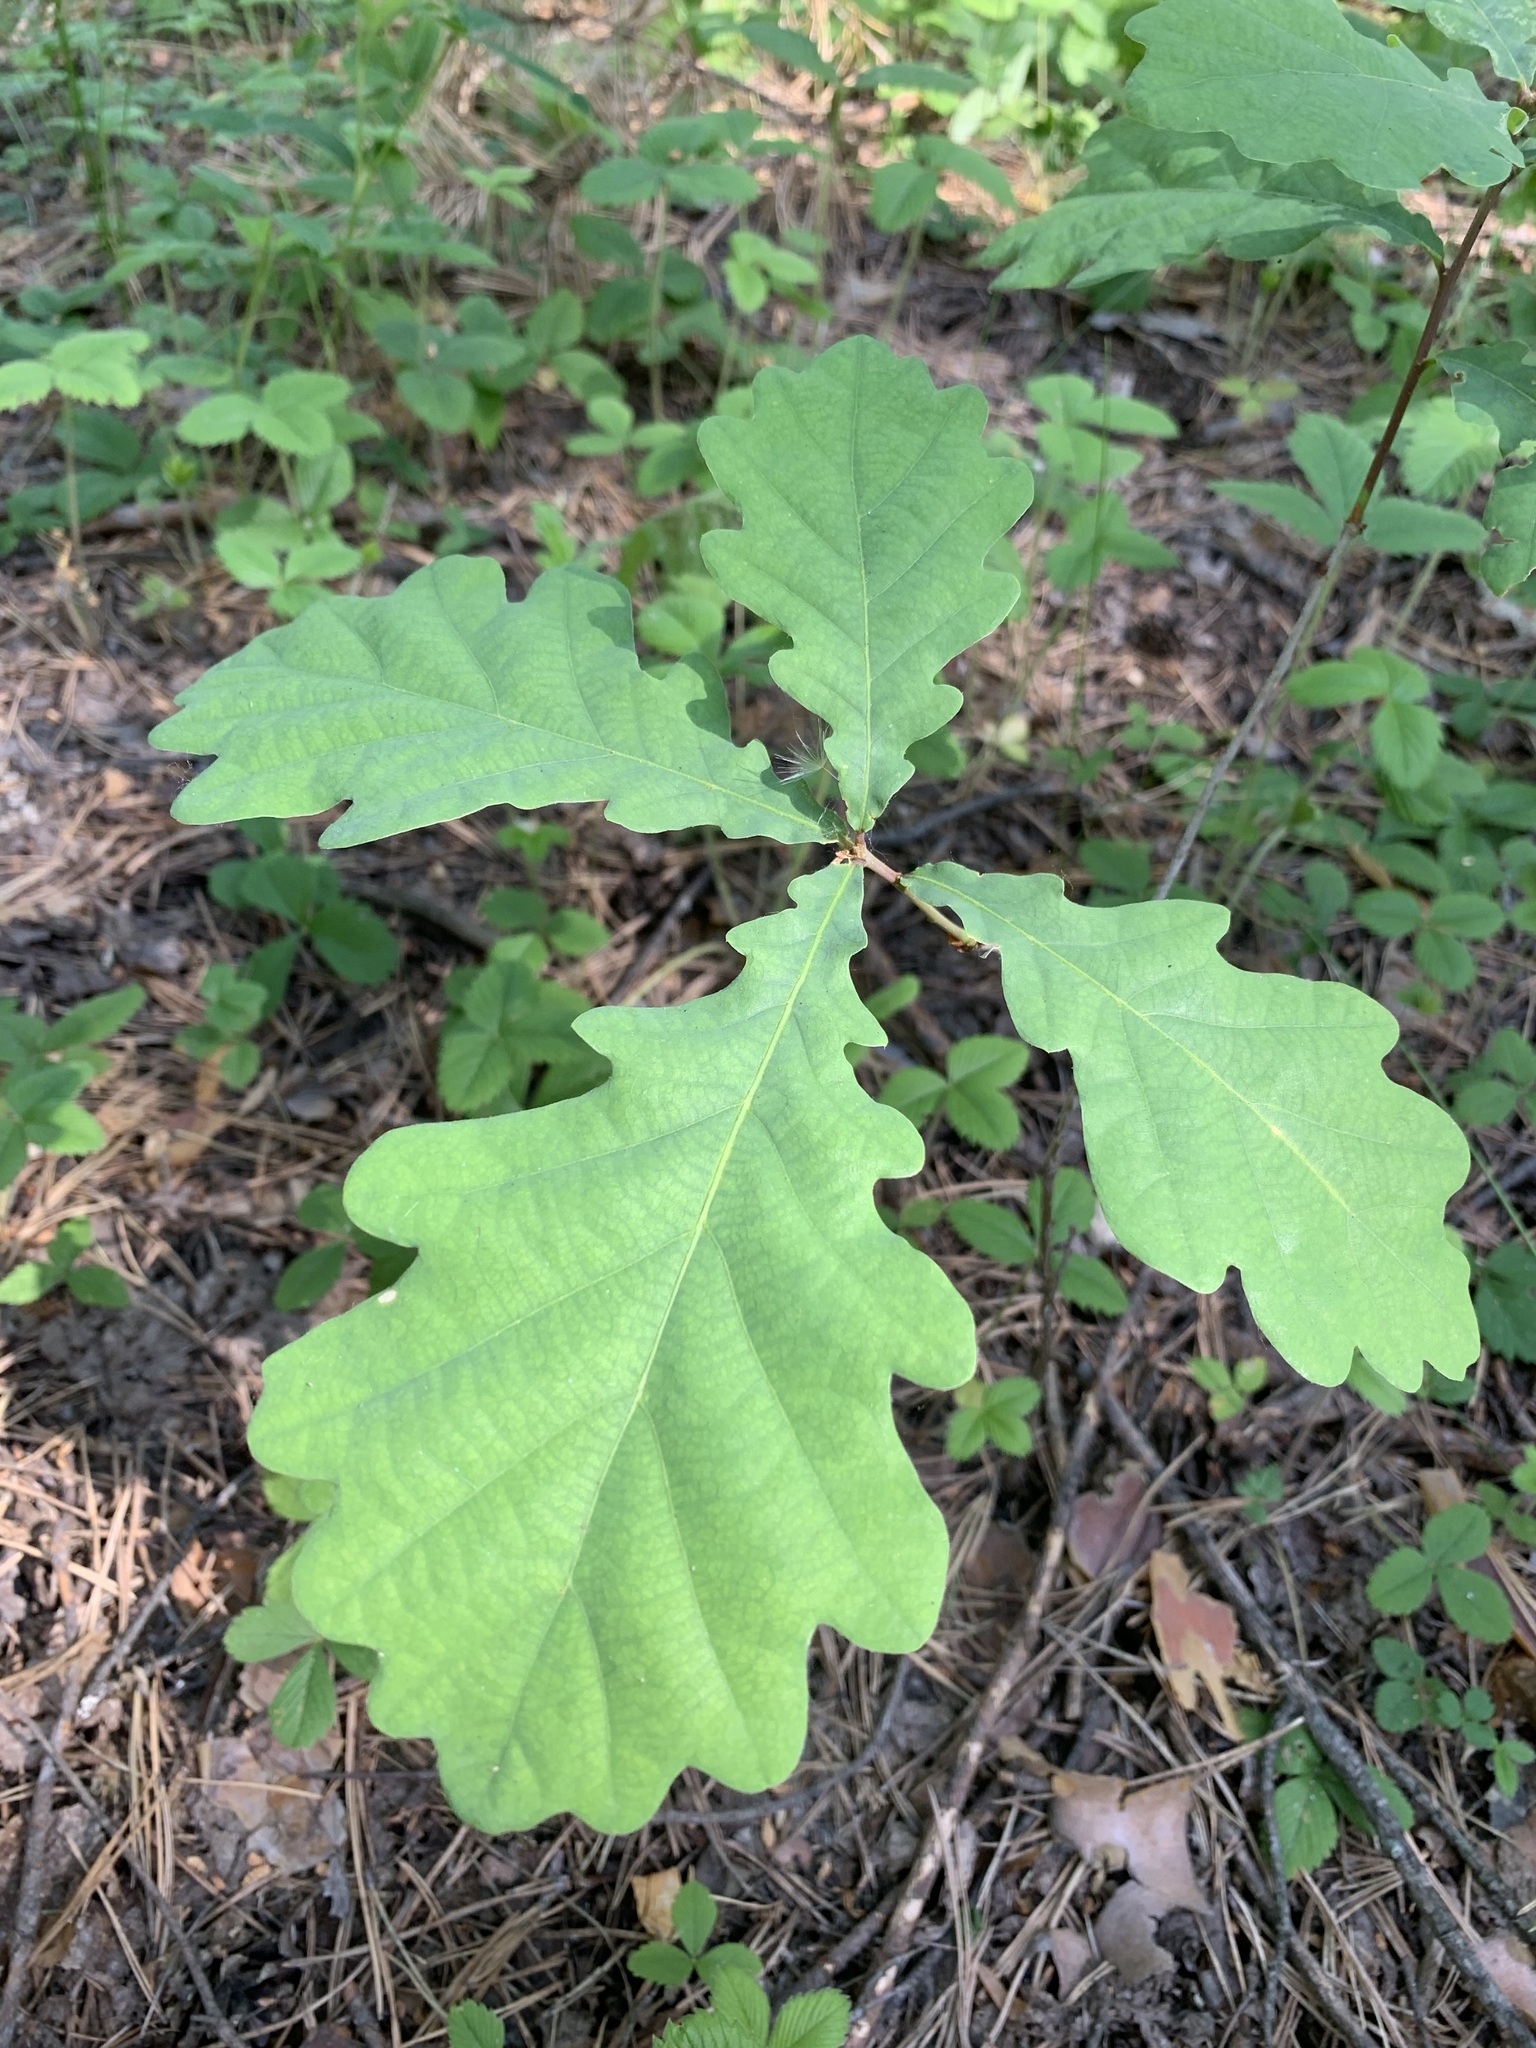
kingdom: Plantae
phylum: Tracheophyta
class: Magnoliopsida
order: Fagales
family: Fagaceae
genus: Quercus
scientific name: Quercus robur
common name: Pedunculate oak
